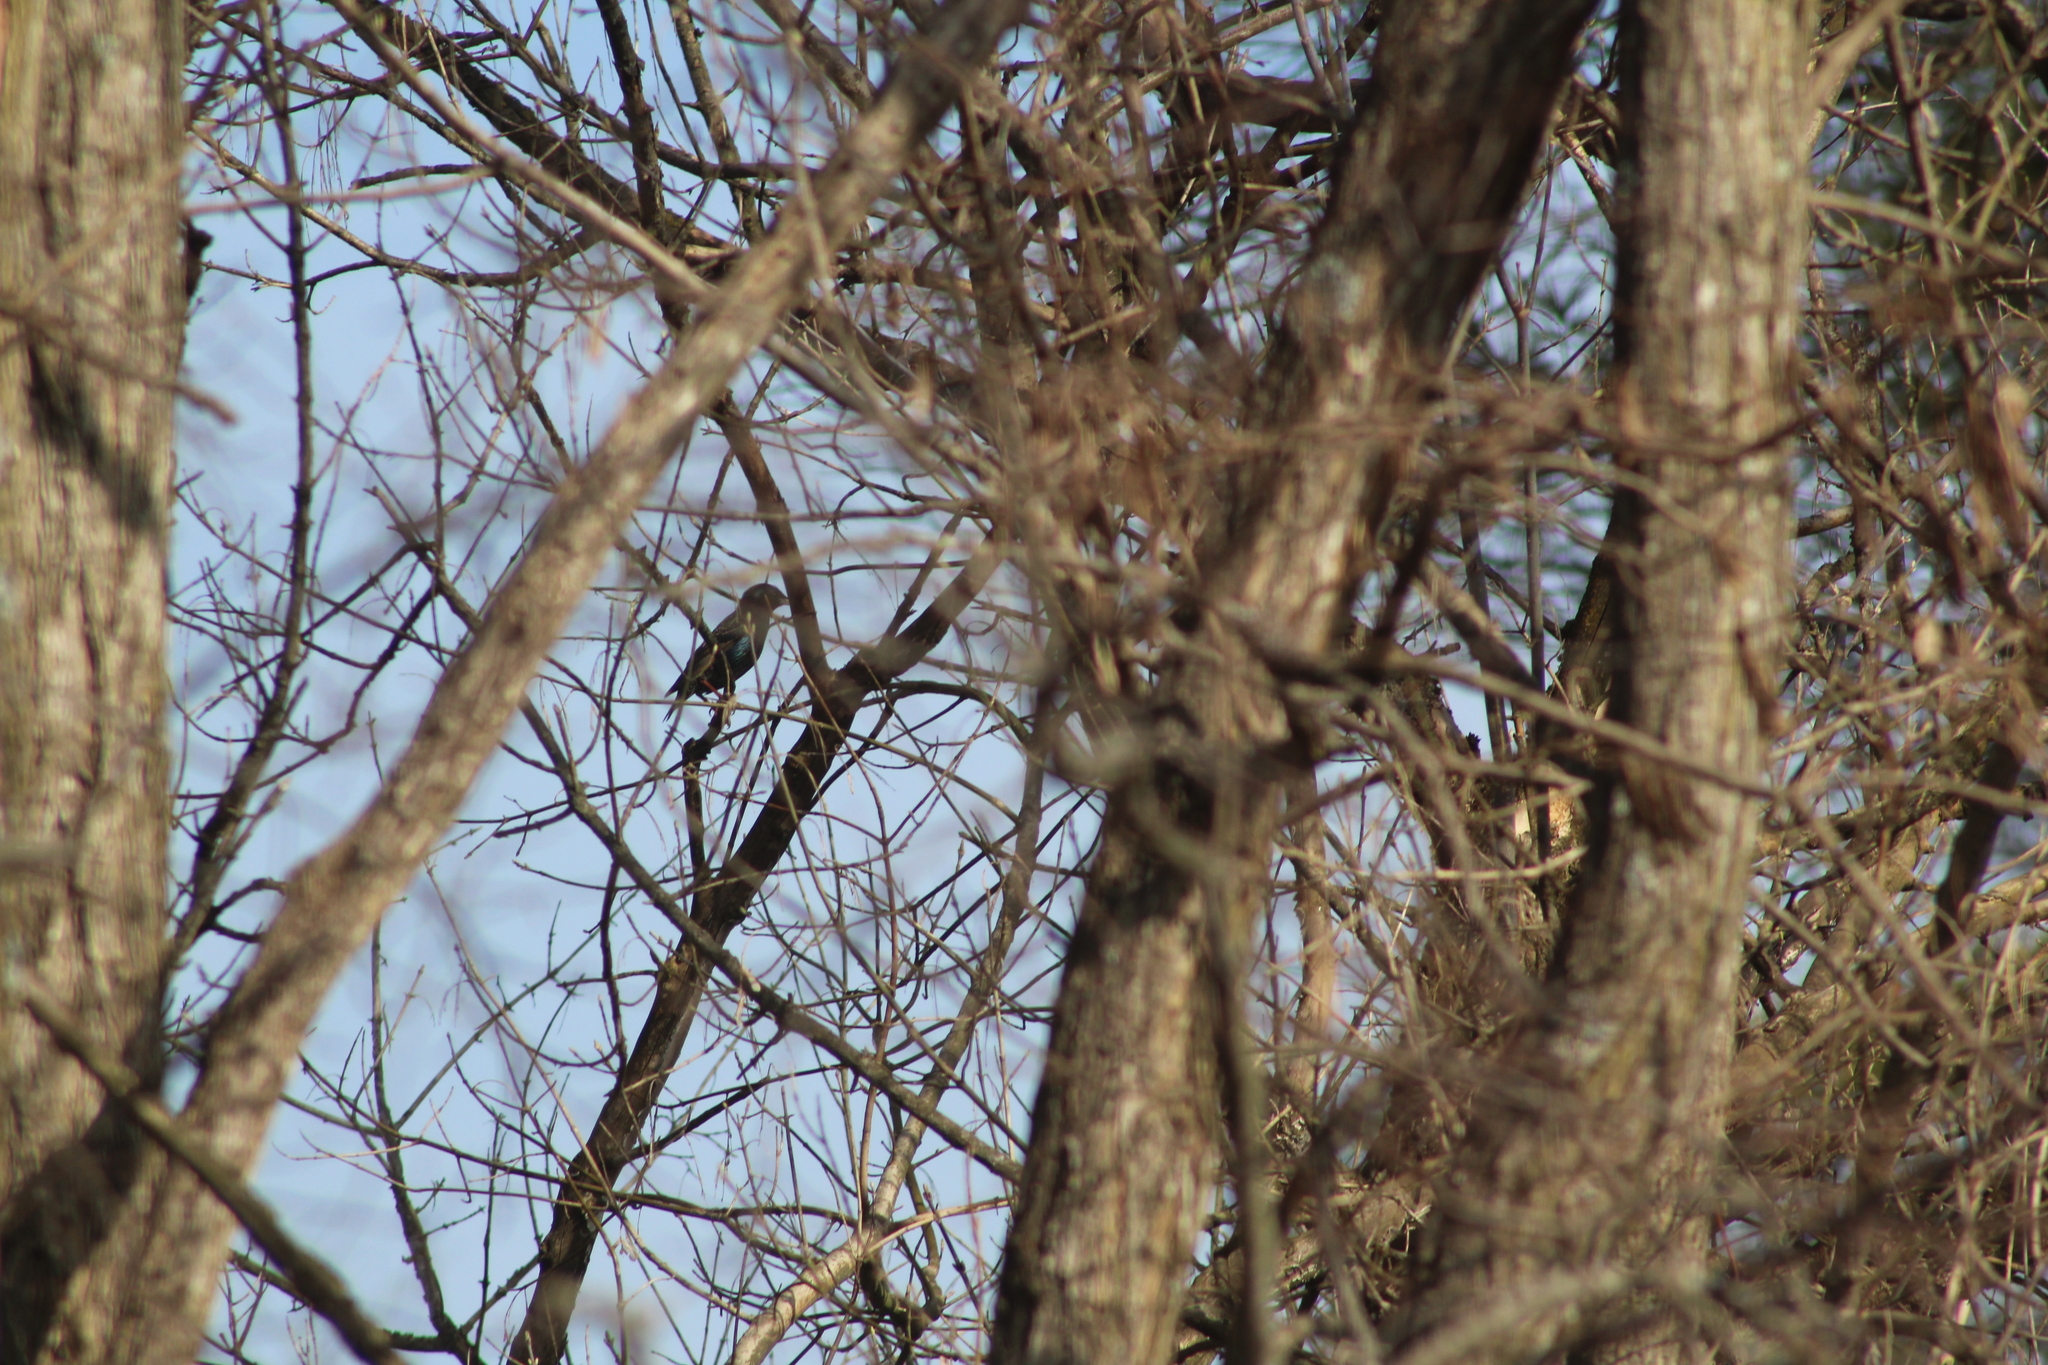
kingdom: Animalia
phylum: Chordata
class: Aves
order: Passeriformes
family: Sturnidae
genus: Sturnus
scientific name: Sturnus vulgaris
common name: Common starling
